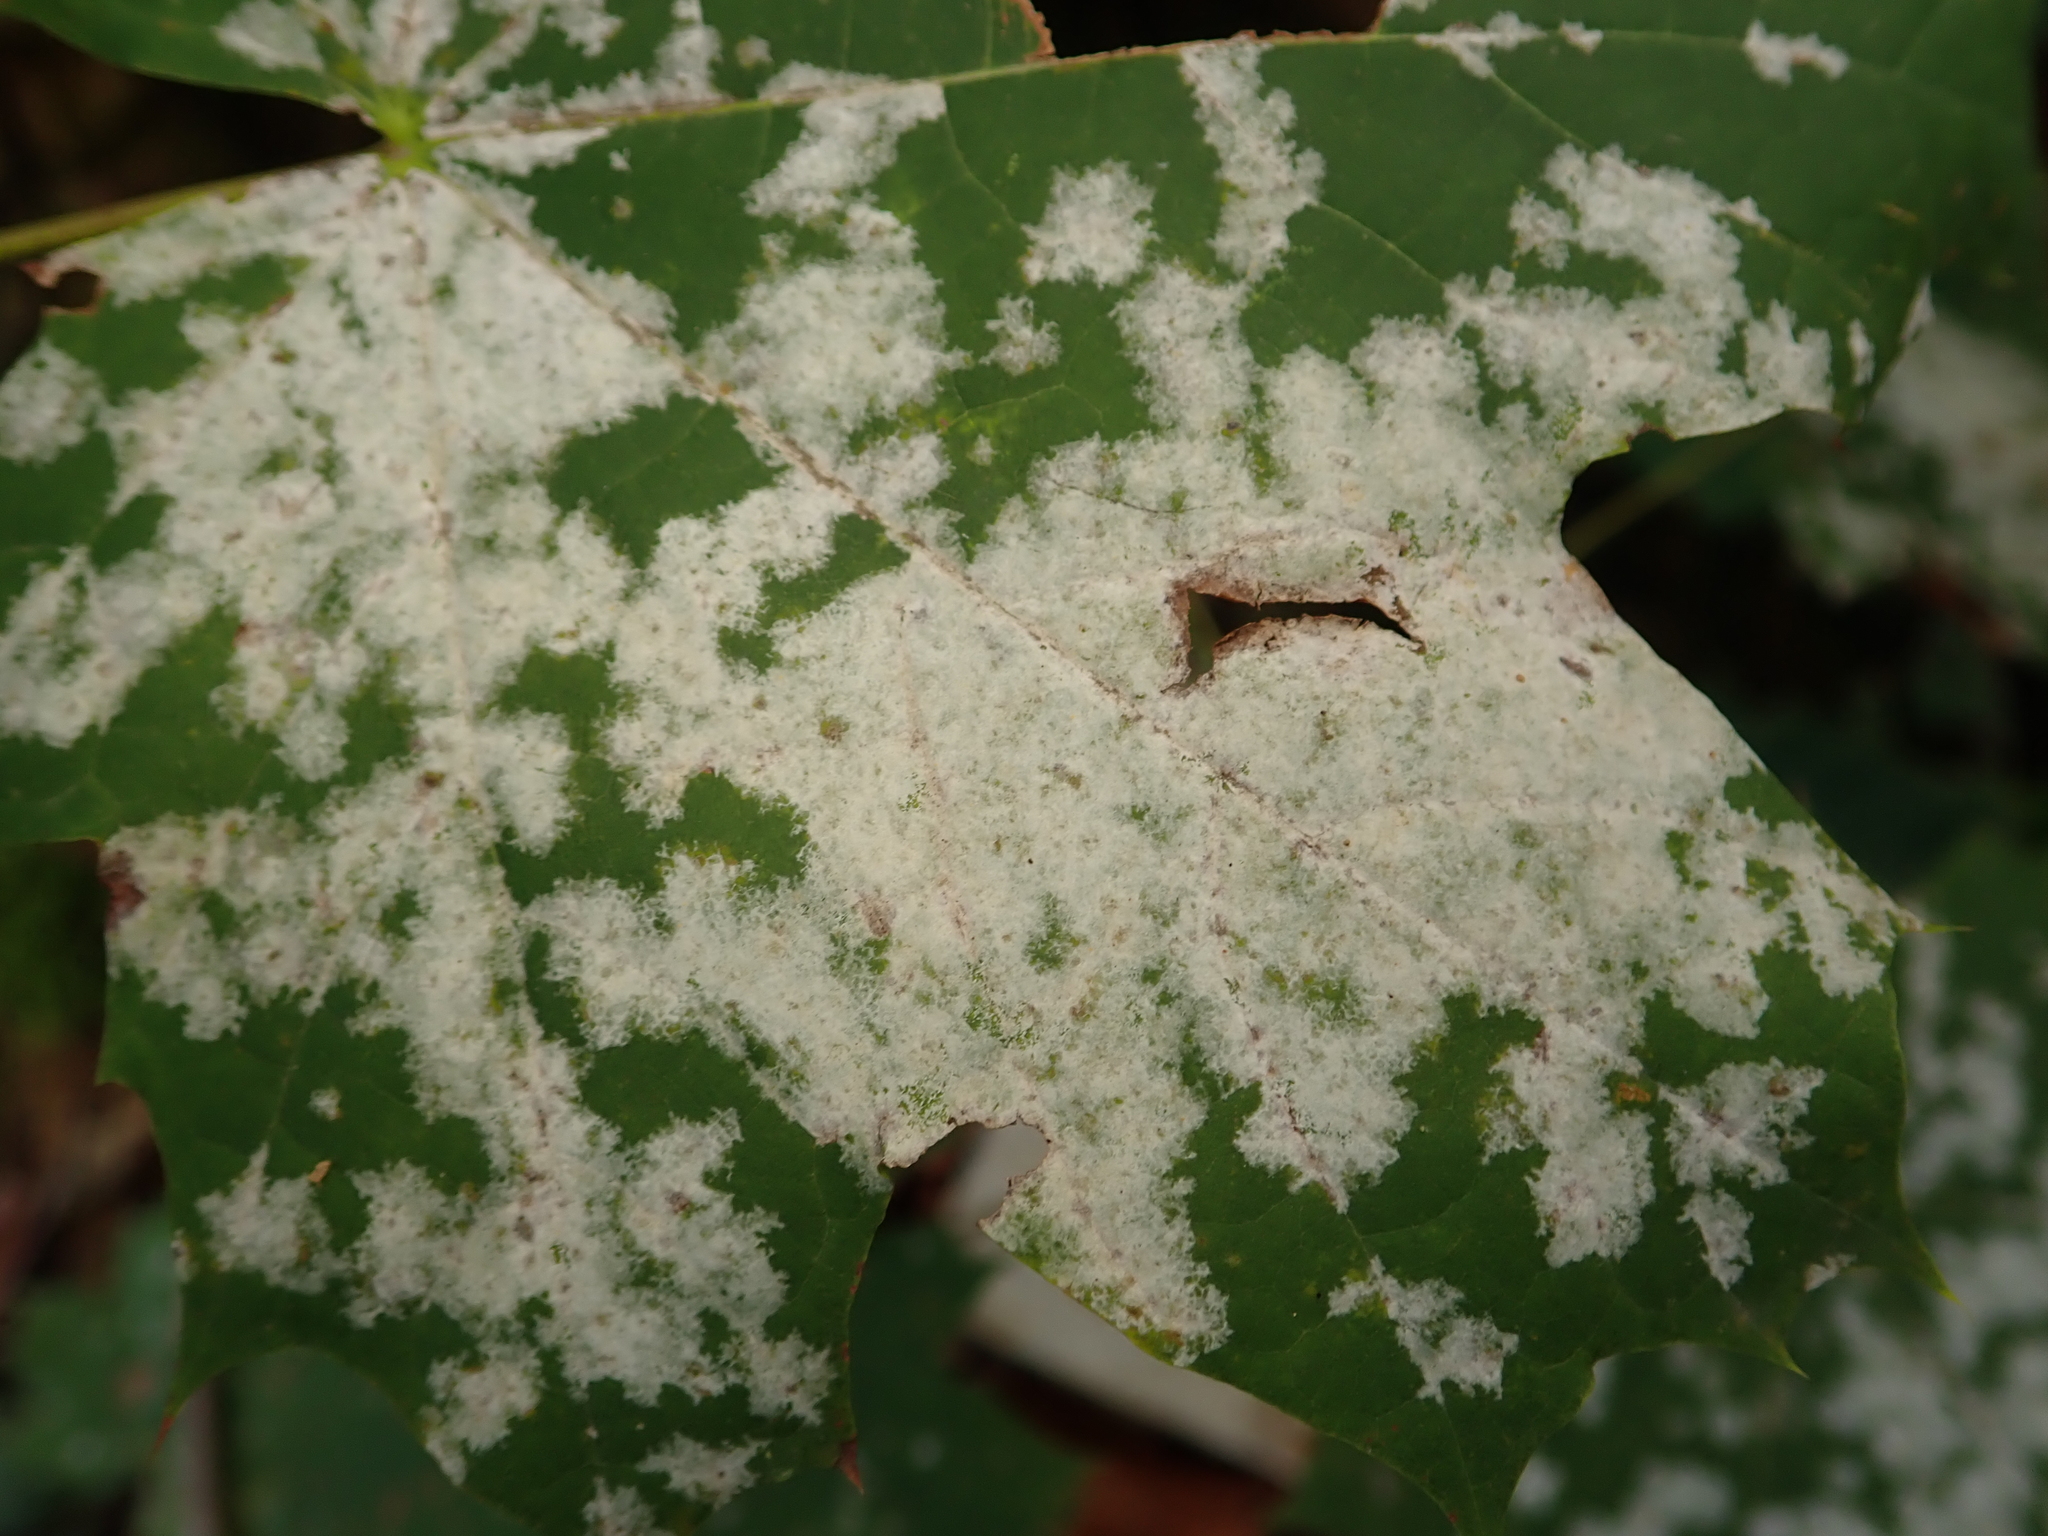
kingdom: Fungi
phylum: Ascomycota
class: Leotiomycetes
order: Helotiales
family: Erysiphaceae
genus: Sawadaea
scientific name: Sawadaea tulasnei
